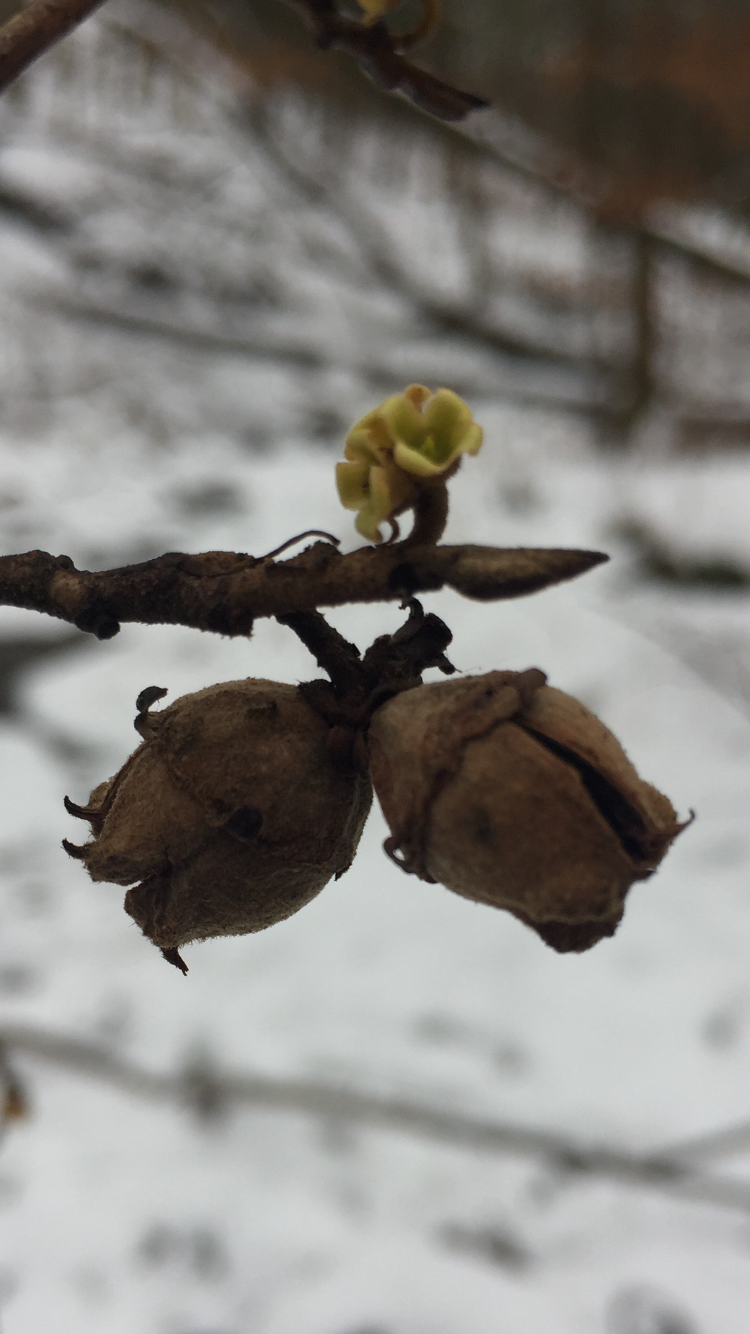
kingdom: Plantae
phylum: Tracheophyta
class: Magnoliopsida
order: Saxifragales
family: Hamamelidaceae
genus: Hamamelis
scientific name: Hamamelis virginiana
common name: Witch-hazel
